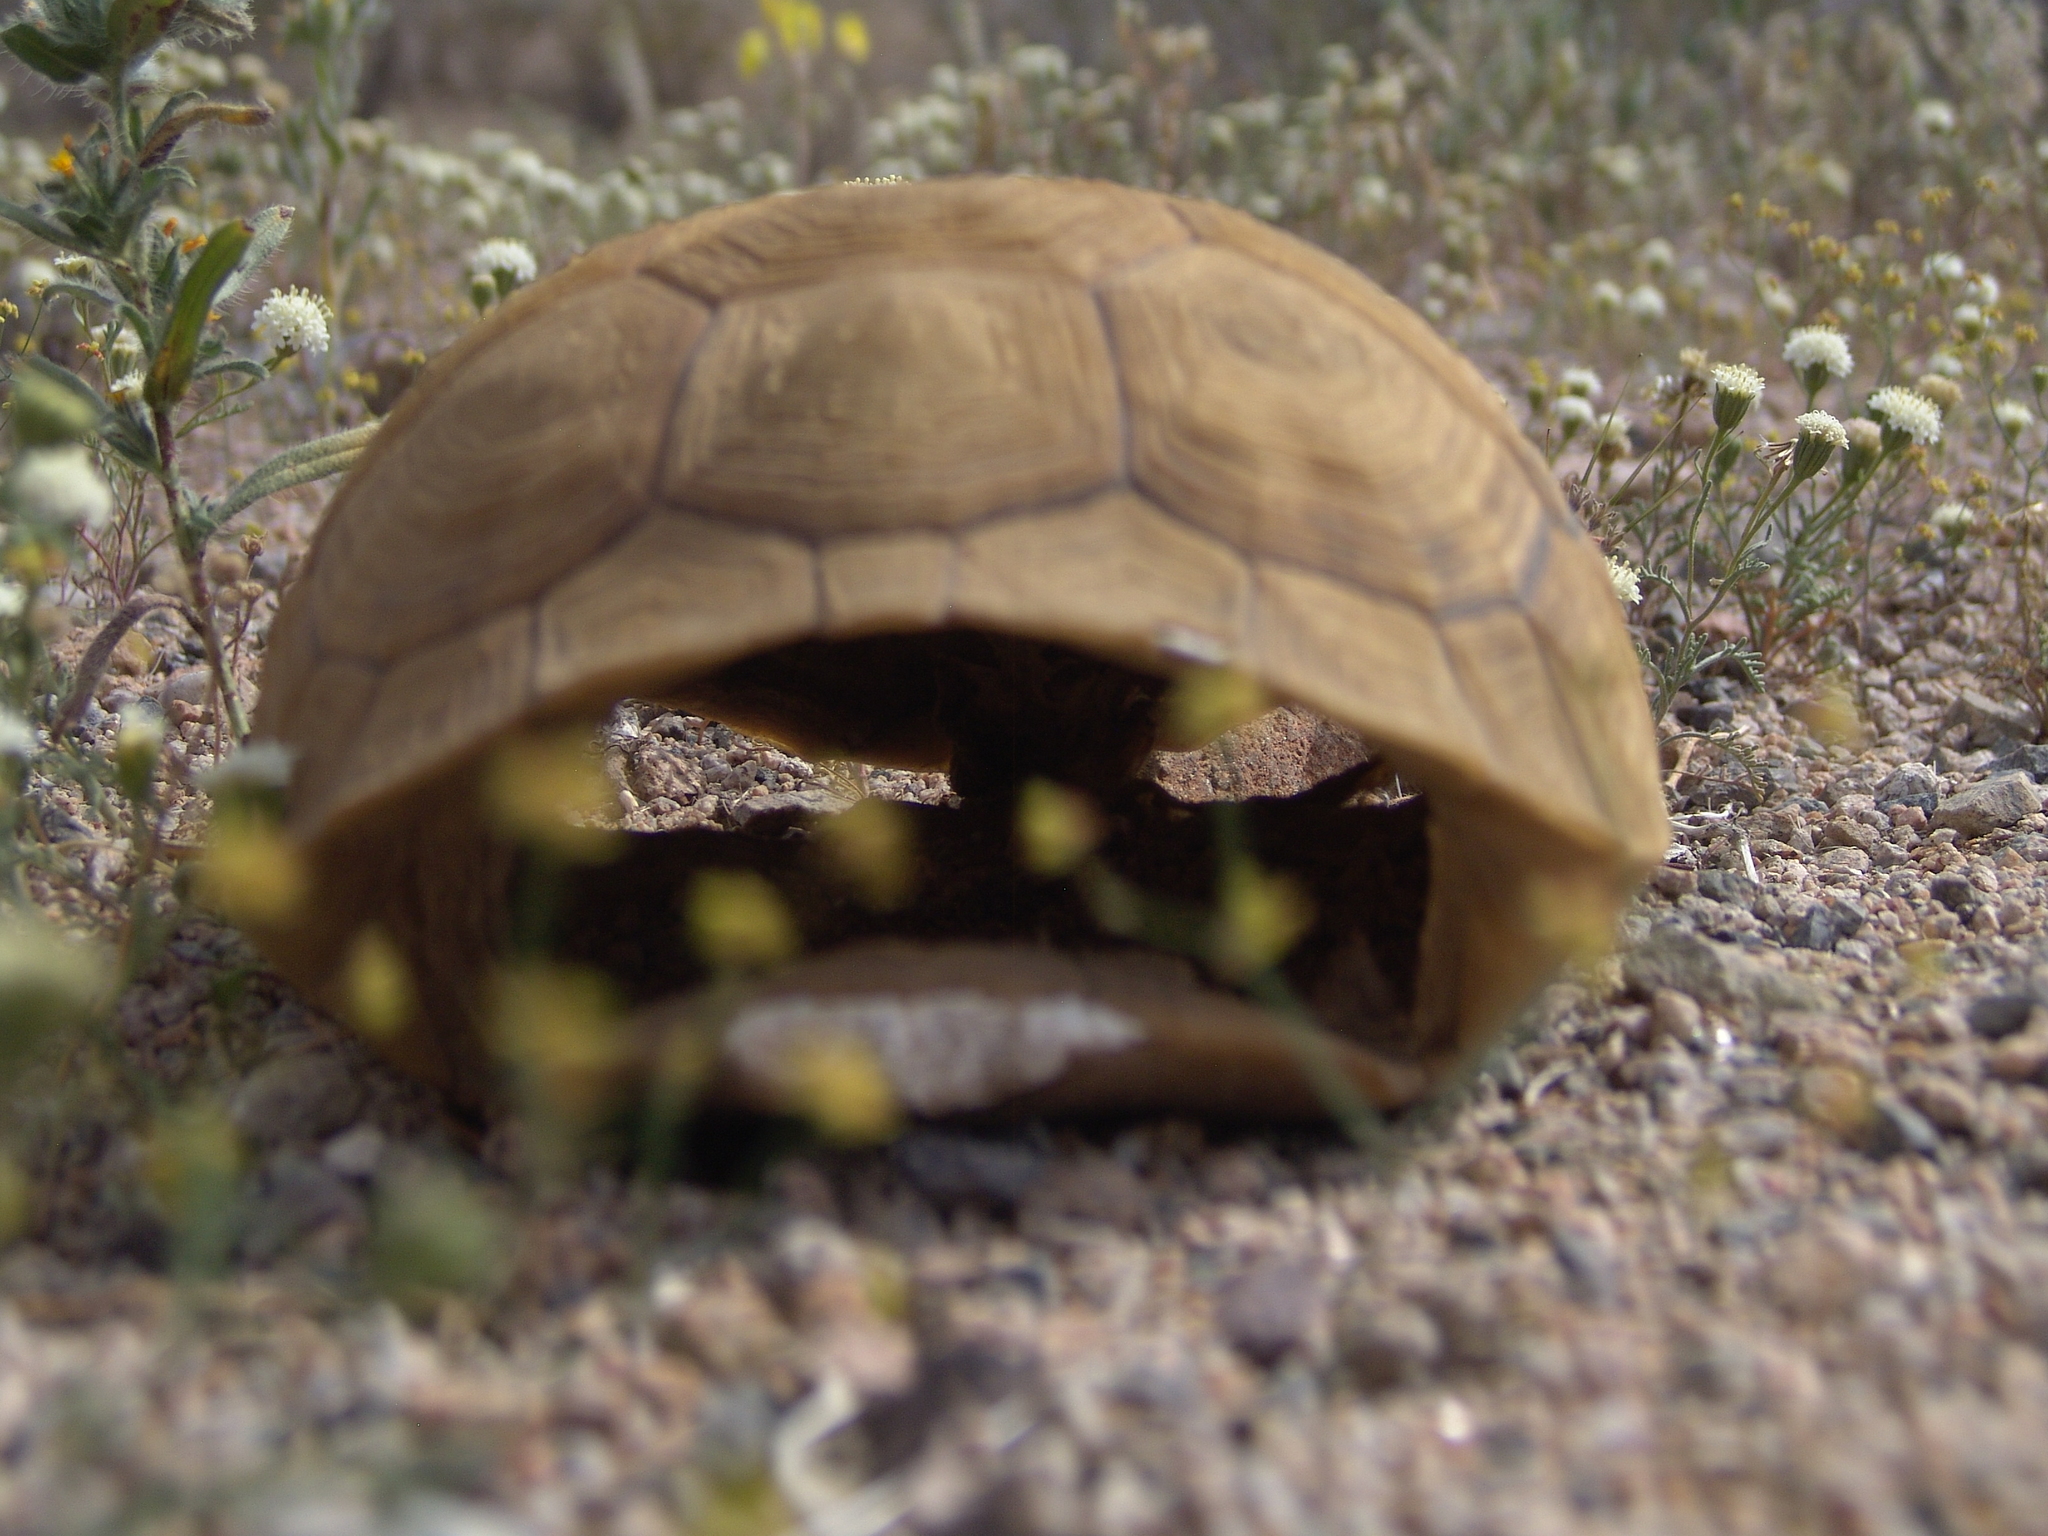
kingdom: Animalia
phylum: Chordata
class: Testudines
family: Testudinidae
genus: Gopherus
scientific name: Gopherus agassizii
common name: Mojave desert tortoise
